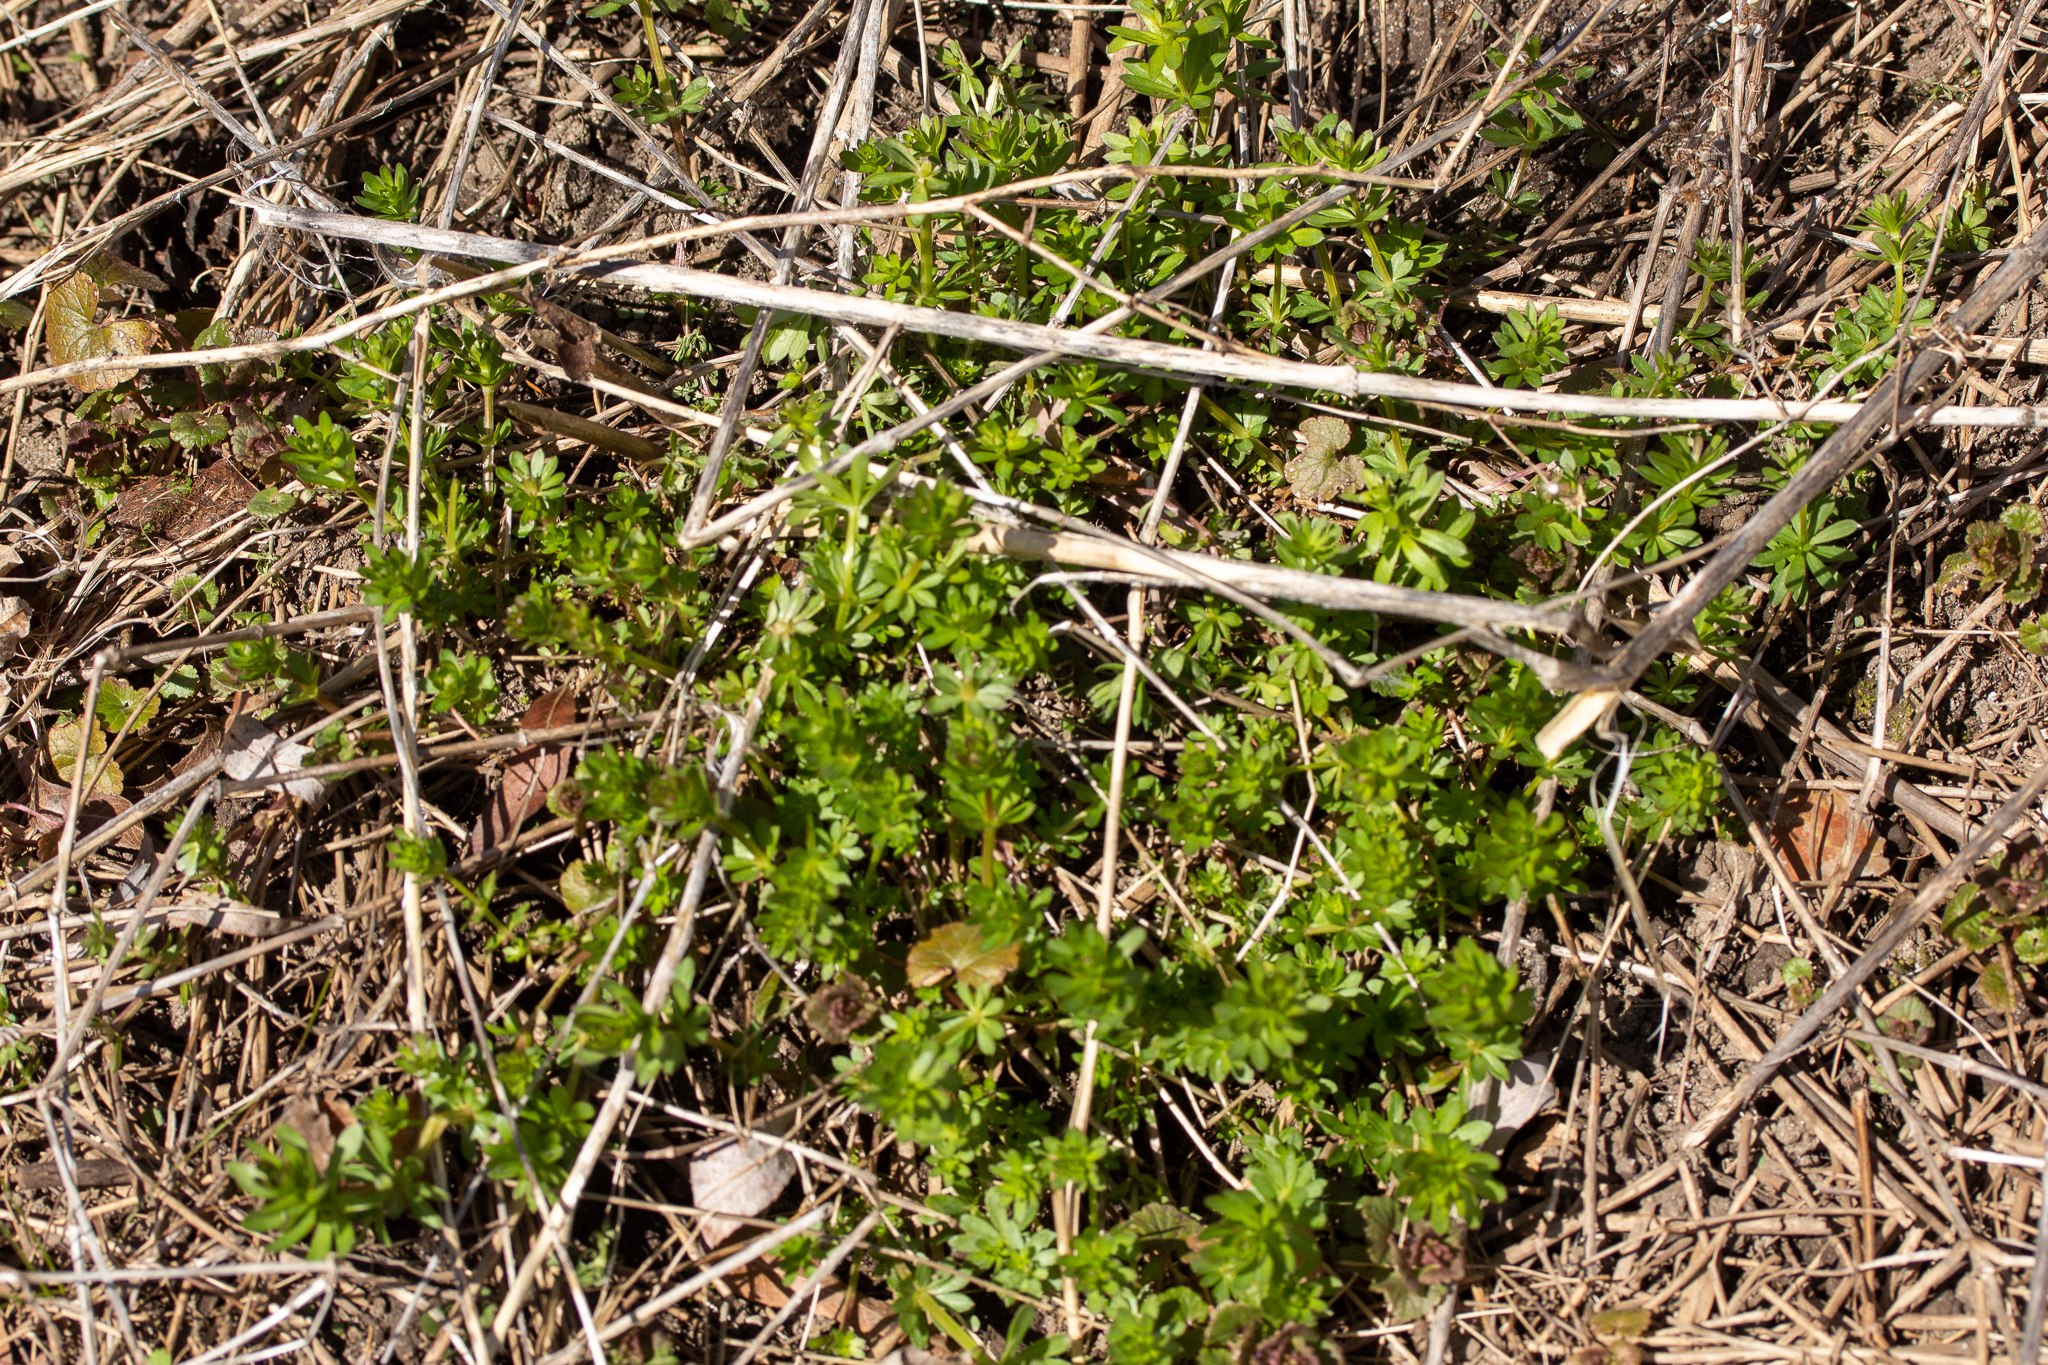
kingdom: Plantae
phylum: Tracheophyta
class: Magnoliopsida
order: Gentianales
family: Rubiaceae
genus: Galium
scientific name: Galium mollugo
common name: Hedge bedstraw
